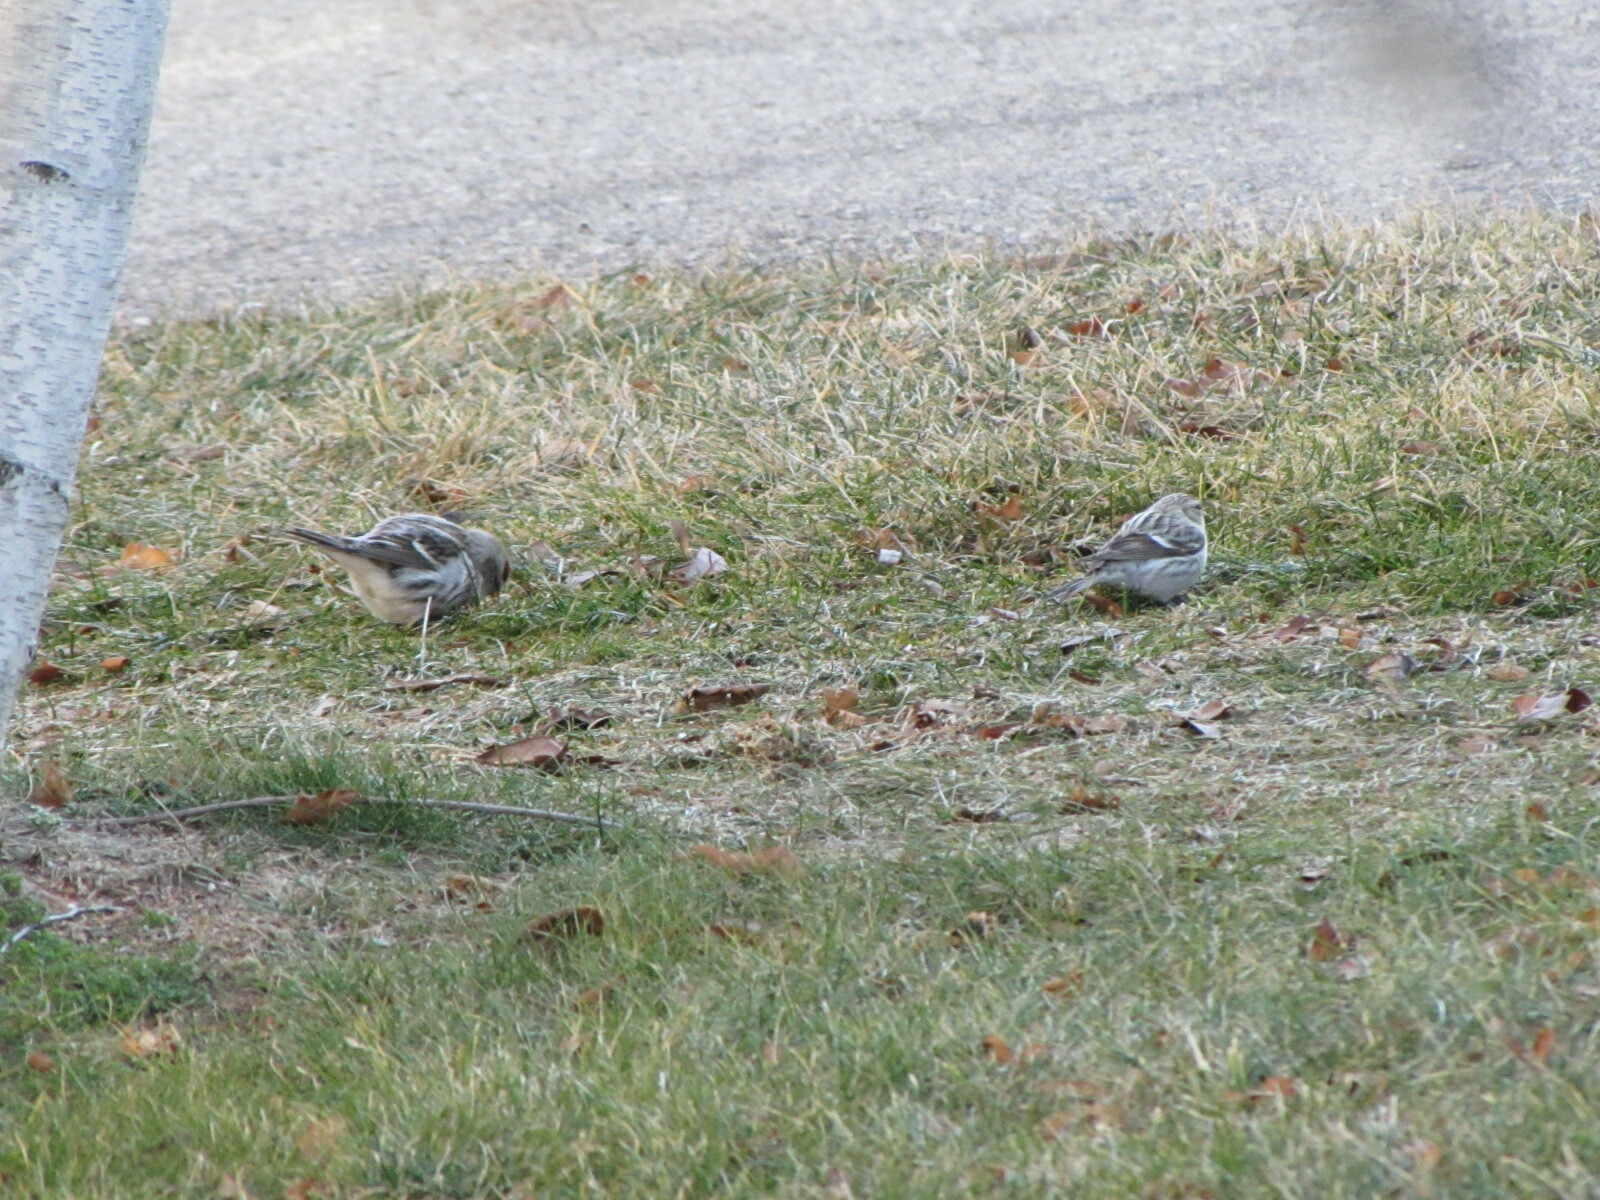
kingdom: Animalia
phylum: Chordata
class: Aves
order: Passeriformes
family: Fringillidae
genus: Acanthis
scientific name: Acanthis flammea
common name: Common redpoll
